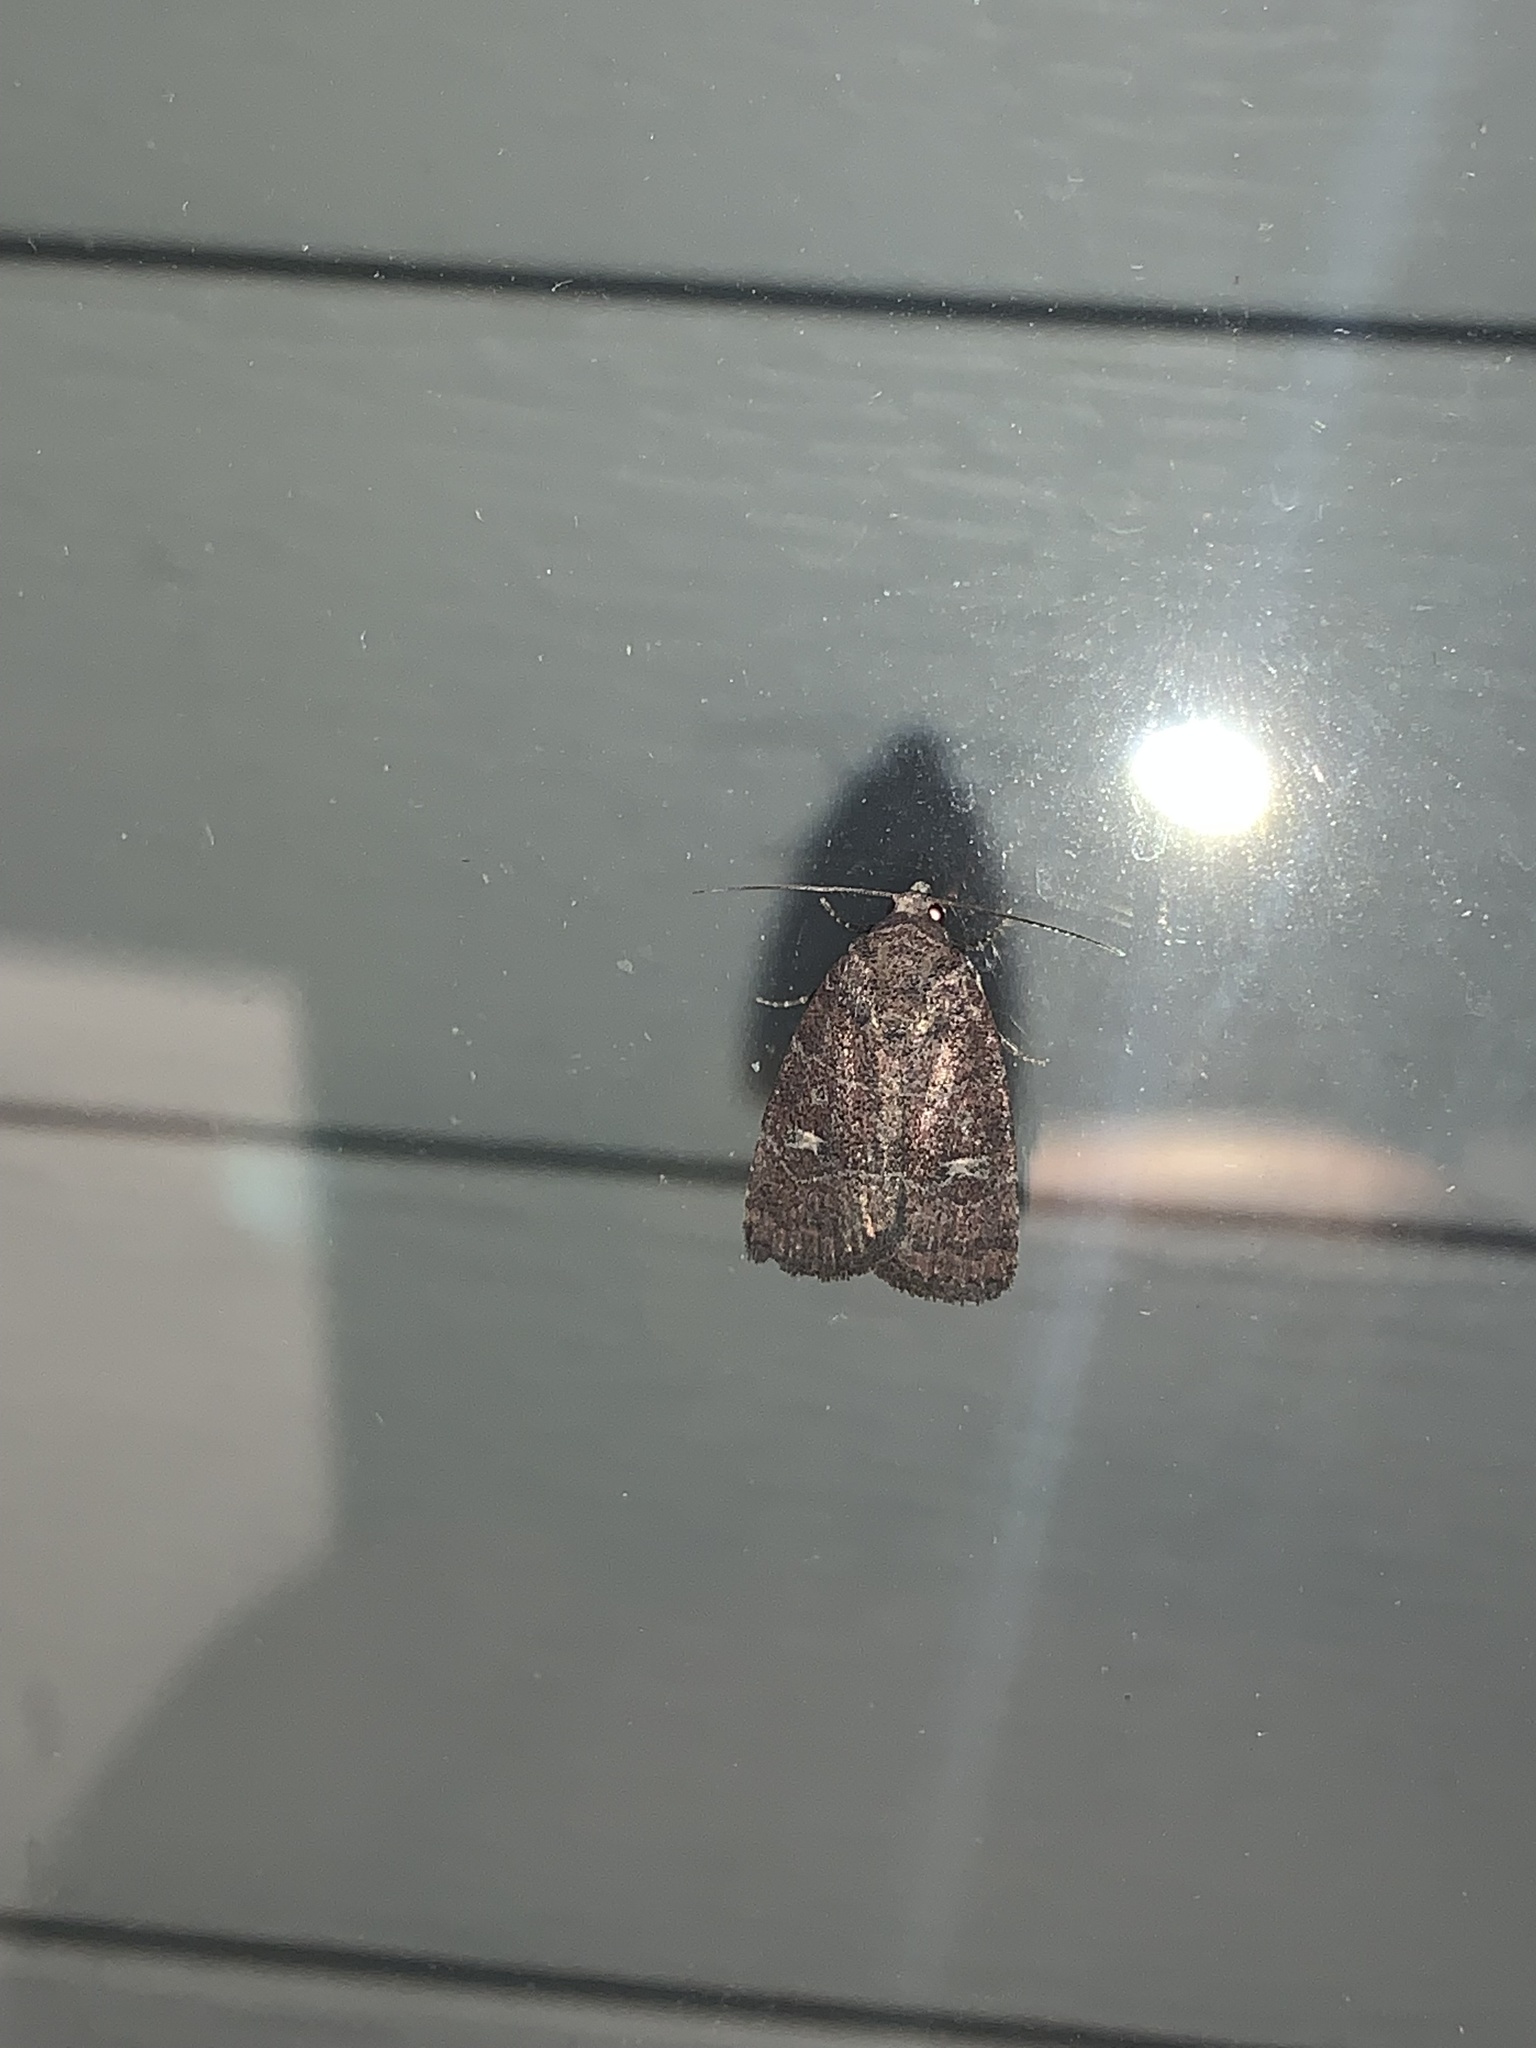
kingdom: Animalia
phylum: Arthropoda
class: Insecta
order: Lepidoptera
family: Noctuidae
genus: Elaphria
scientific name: Elaphria grata
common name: Grateful midget moth
